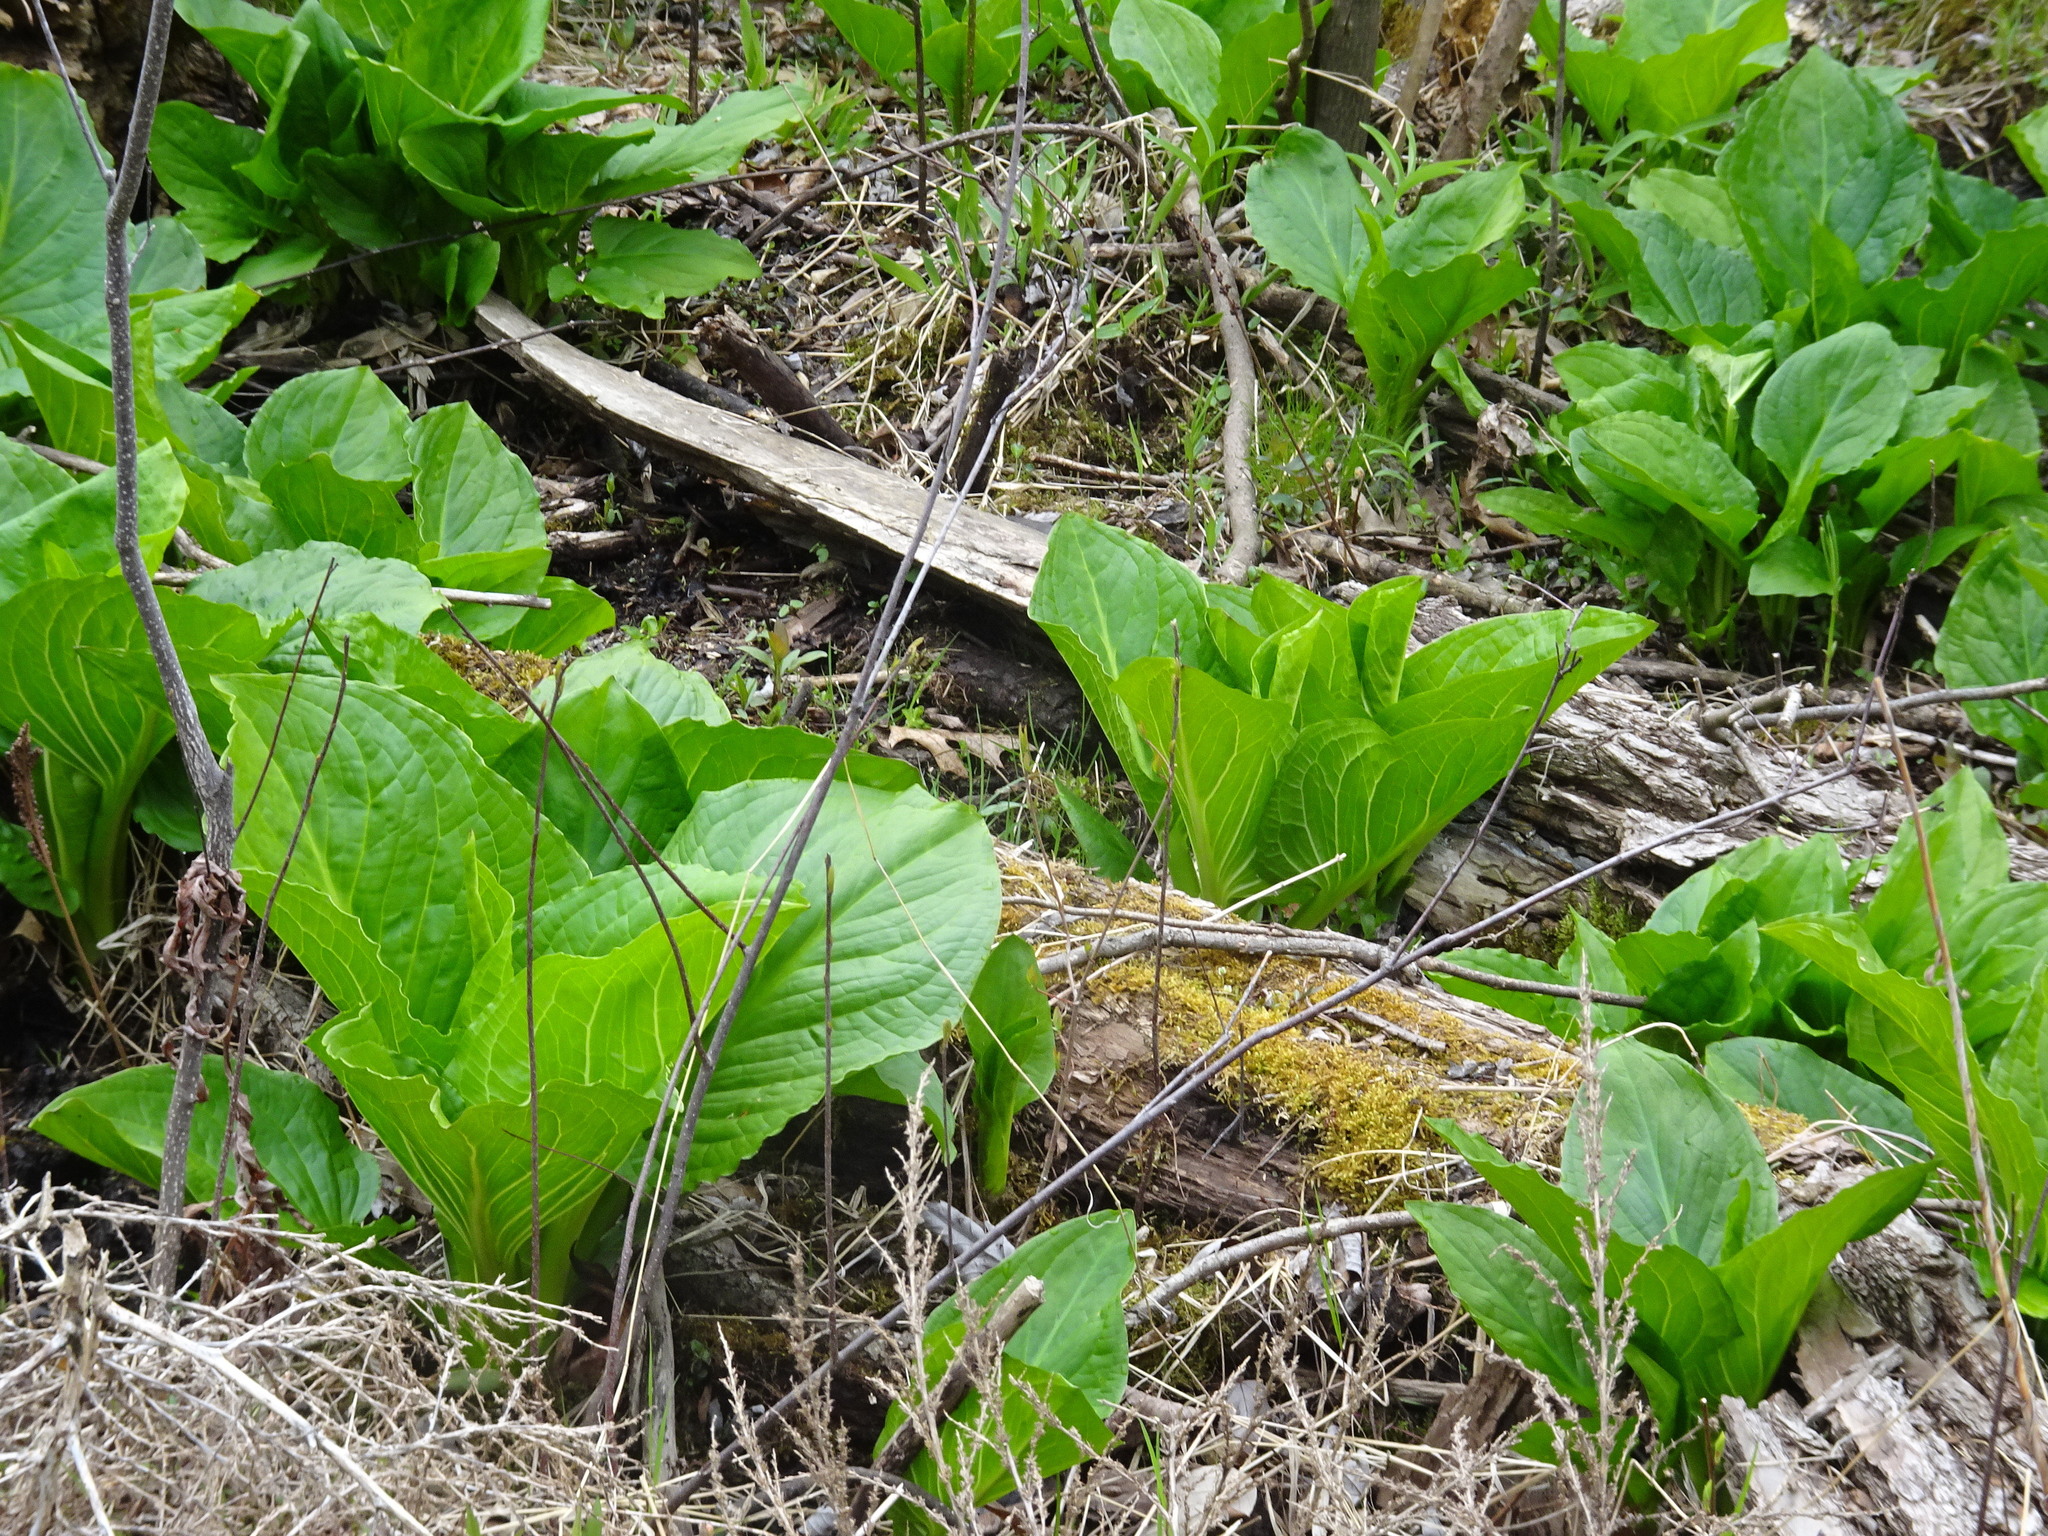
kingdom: Plantae
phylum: Tracheophyta
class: Liliopsida
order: Alismatales
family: Araceae
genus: Symplocarpus
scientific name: Symplocarpus foetidus
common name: Eastern skunk cabbage
